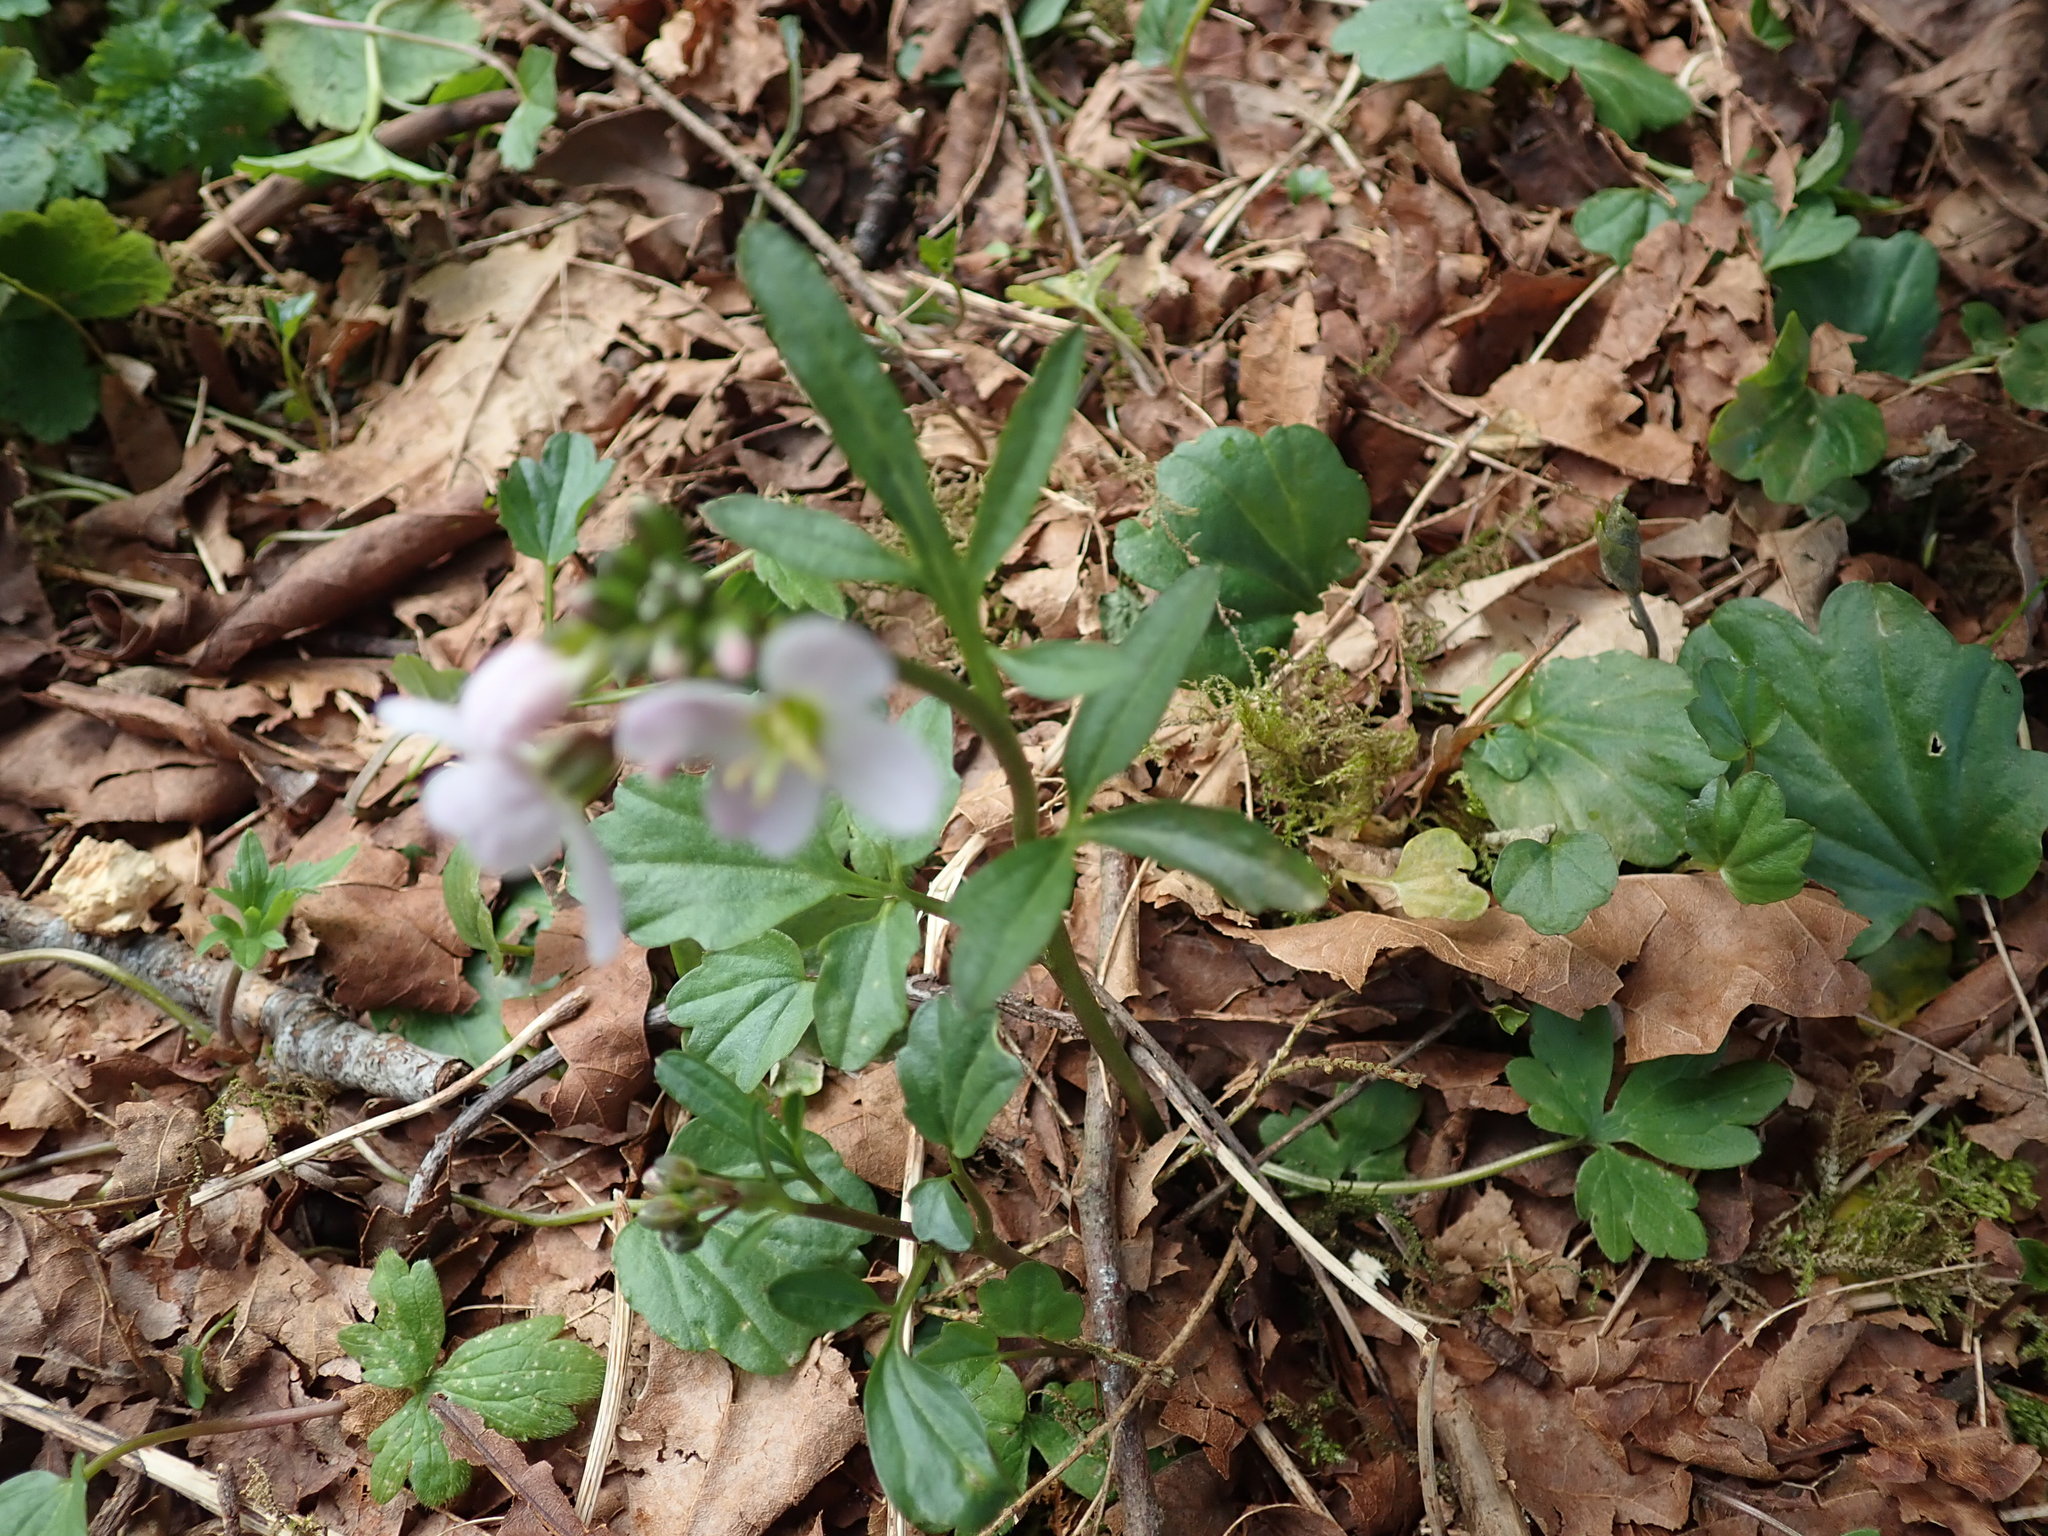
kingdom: Plantae
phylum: Tracheophyta
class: Magnoliopsida
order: Brassicales
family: Brassicaceae
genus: Cardamine
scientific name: Cardamine nuttallii
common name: Nuttall's toothwort
